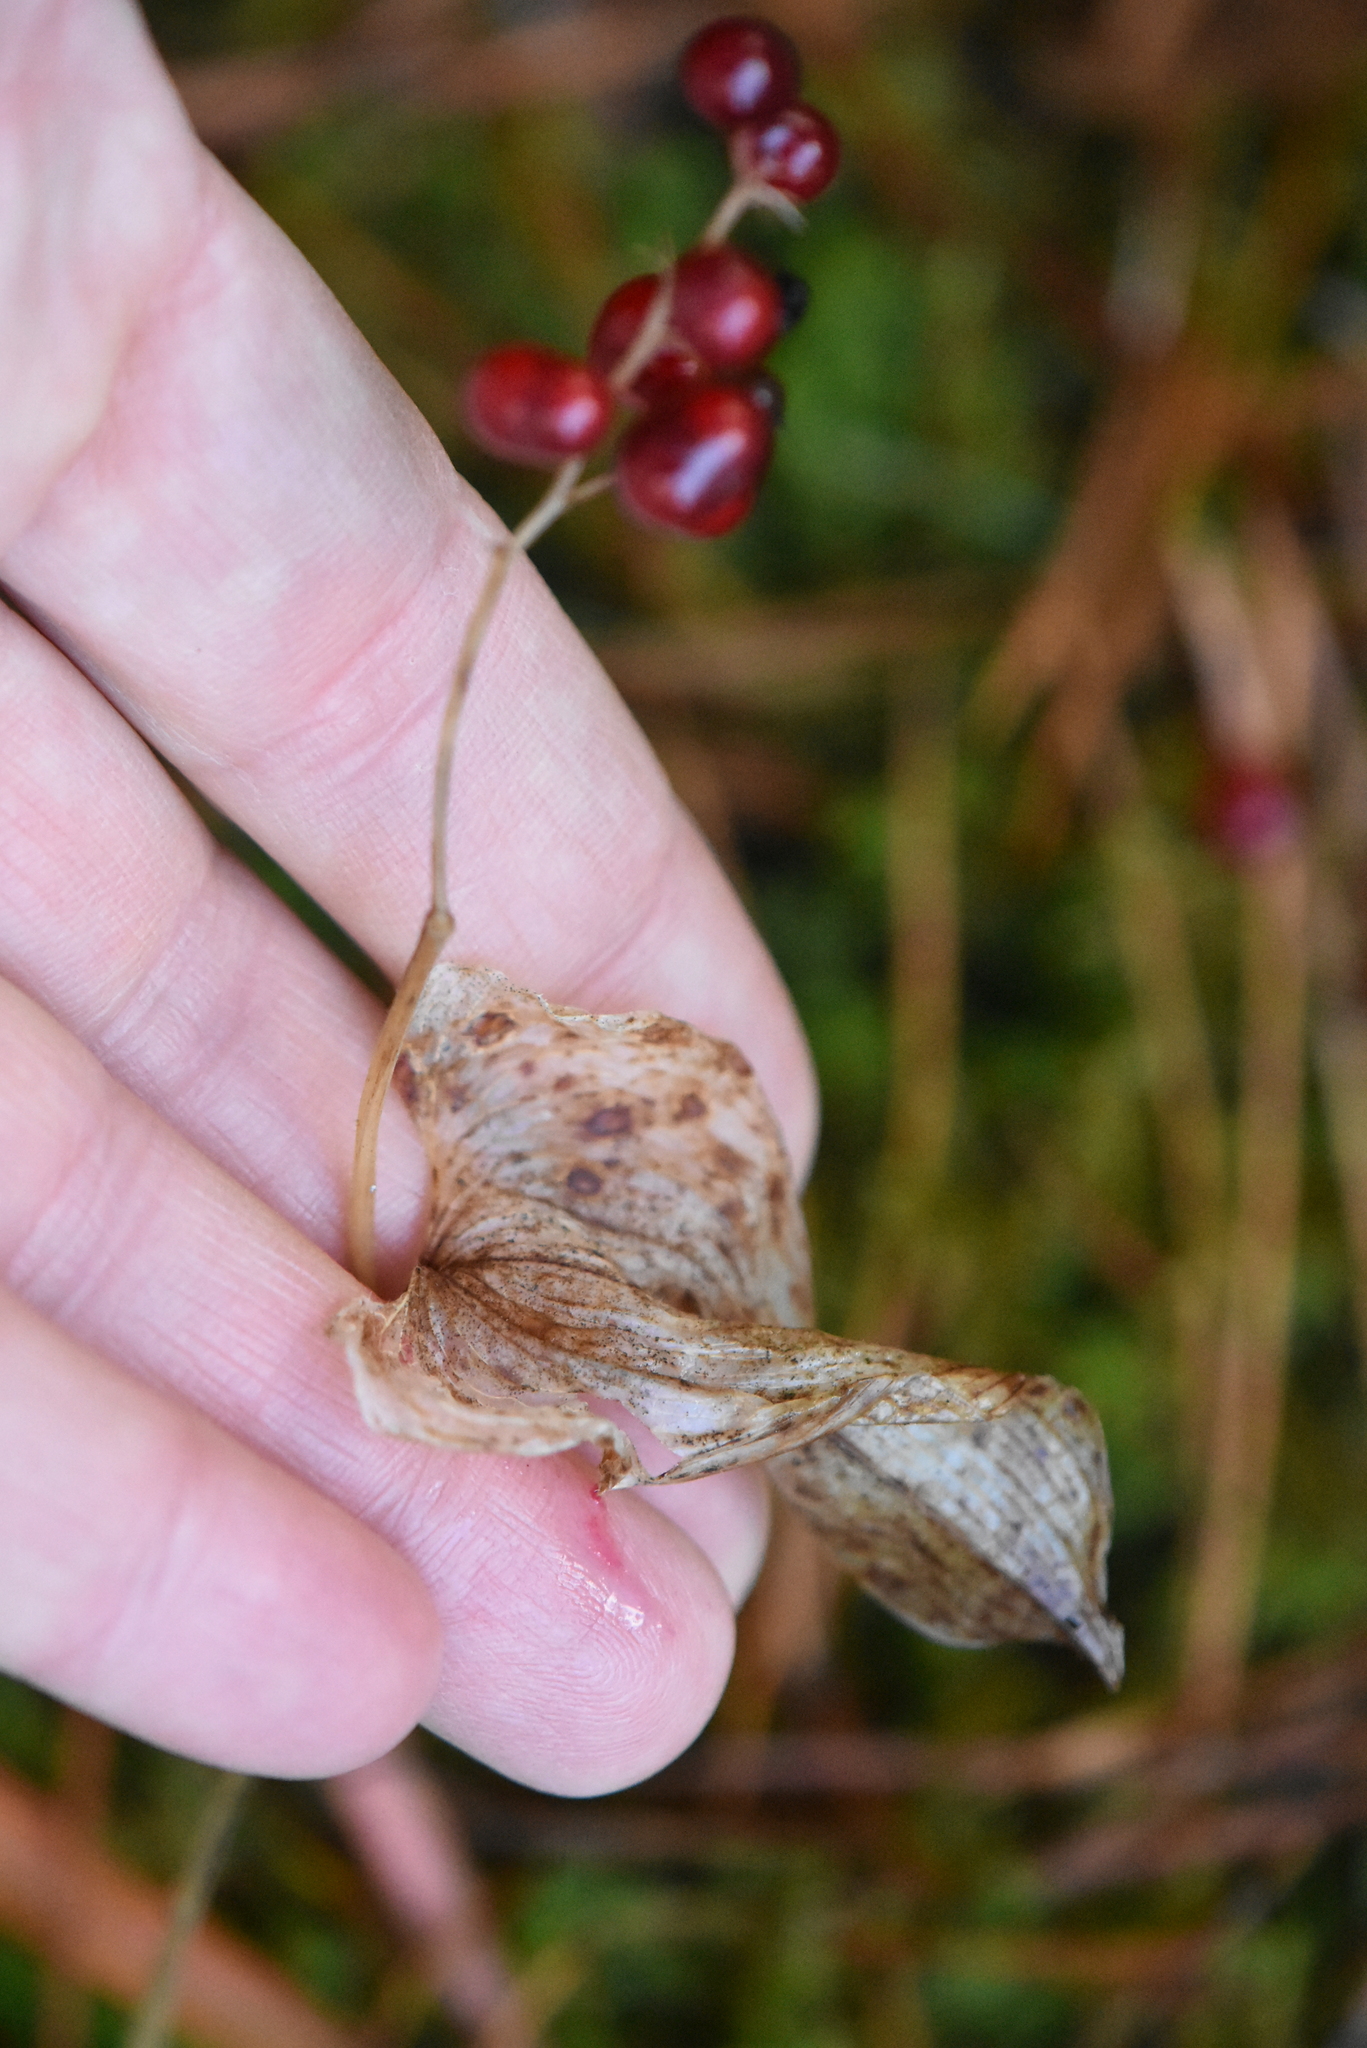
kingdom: Plantae
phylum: Tracheophyta
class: Liliopsida
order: Asparagales
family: Asparagaceae
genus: Maianthemum
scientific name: Maianthemum bifolium
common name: May lily
